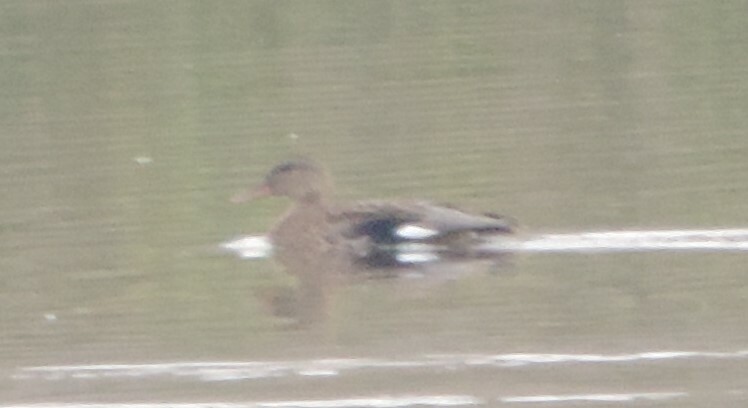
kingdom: Animalia
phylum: Chordata
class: Aves
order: Anseriformes
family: Anatidae
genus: Mareca
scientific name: Mareca strepera
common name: Gadwall
